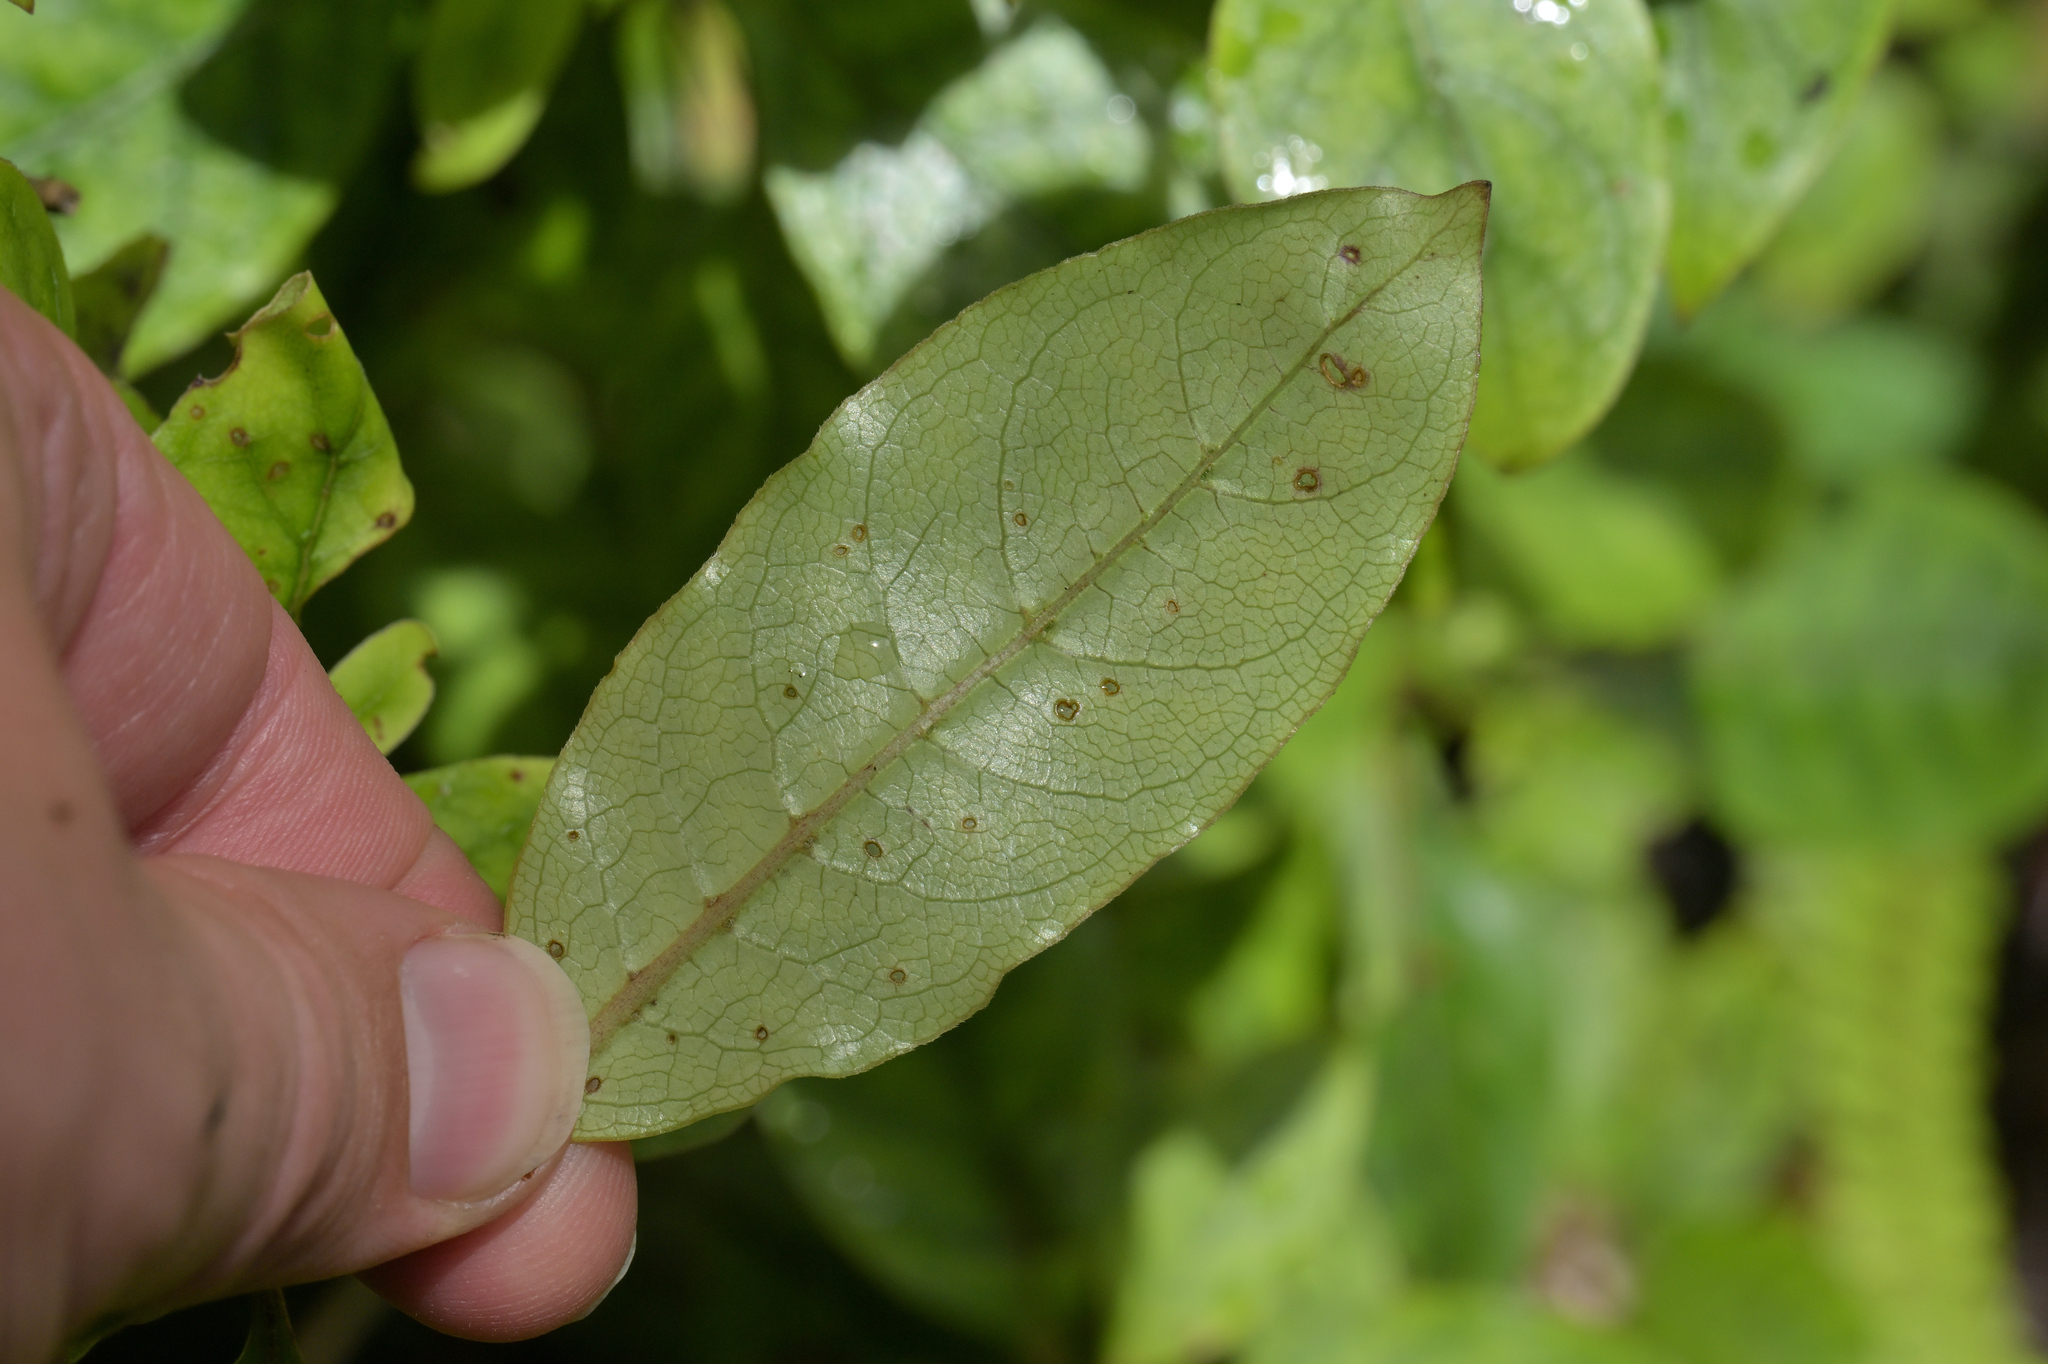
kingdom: Plantae
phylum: Tracheophyta
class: Magnoliopsida
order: Gentianales
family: Rubiaceae
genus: Coprosma
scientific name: Coprosma tenuifolia
